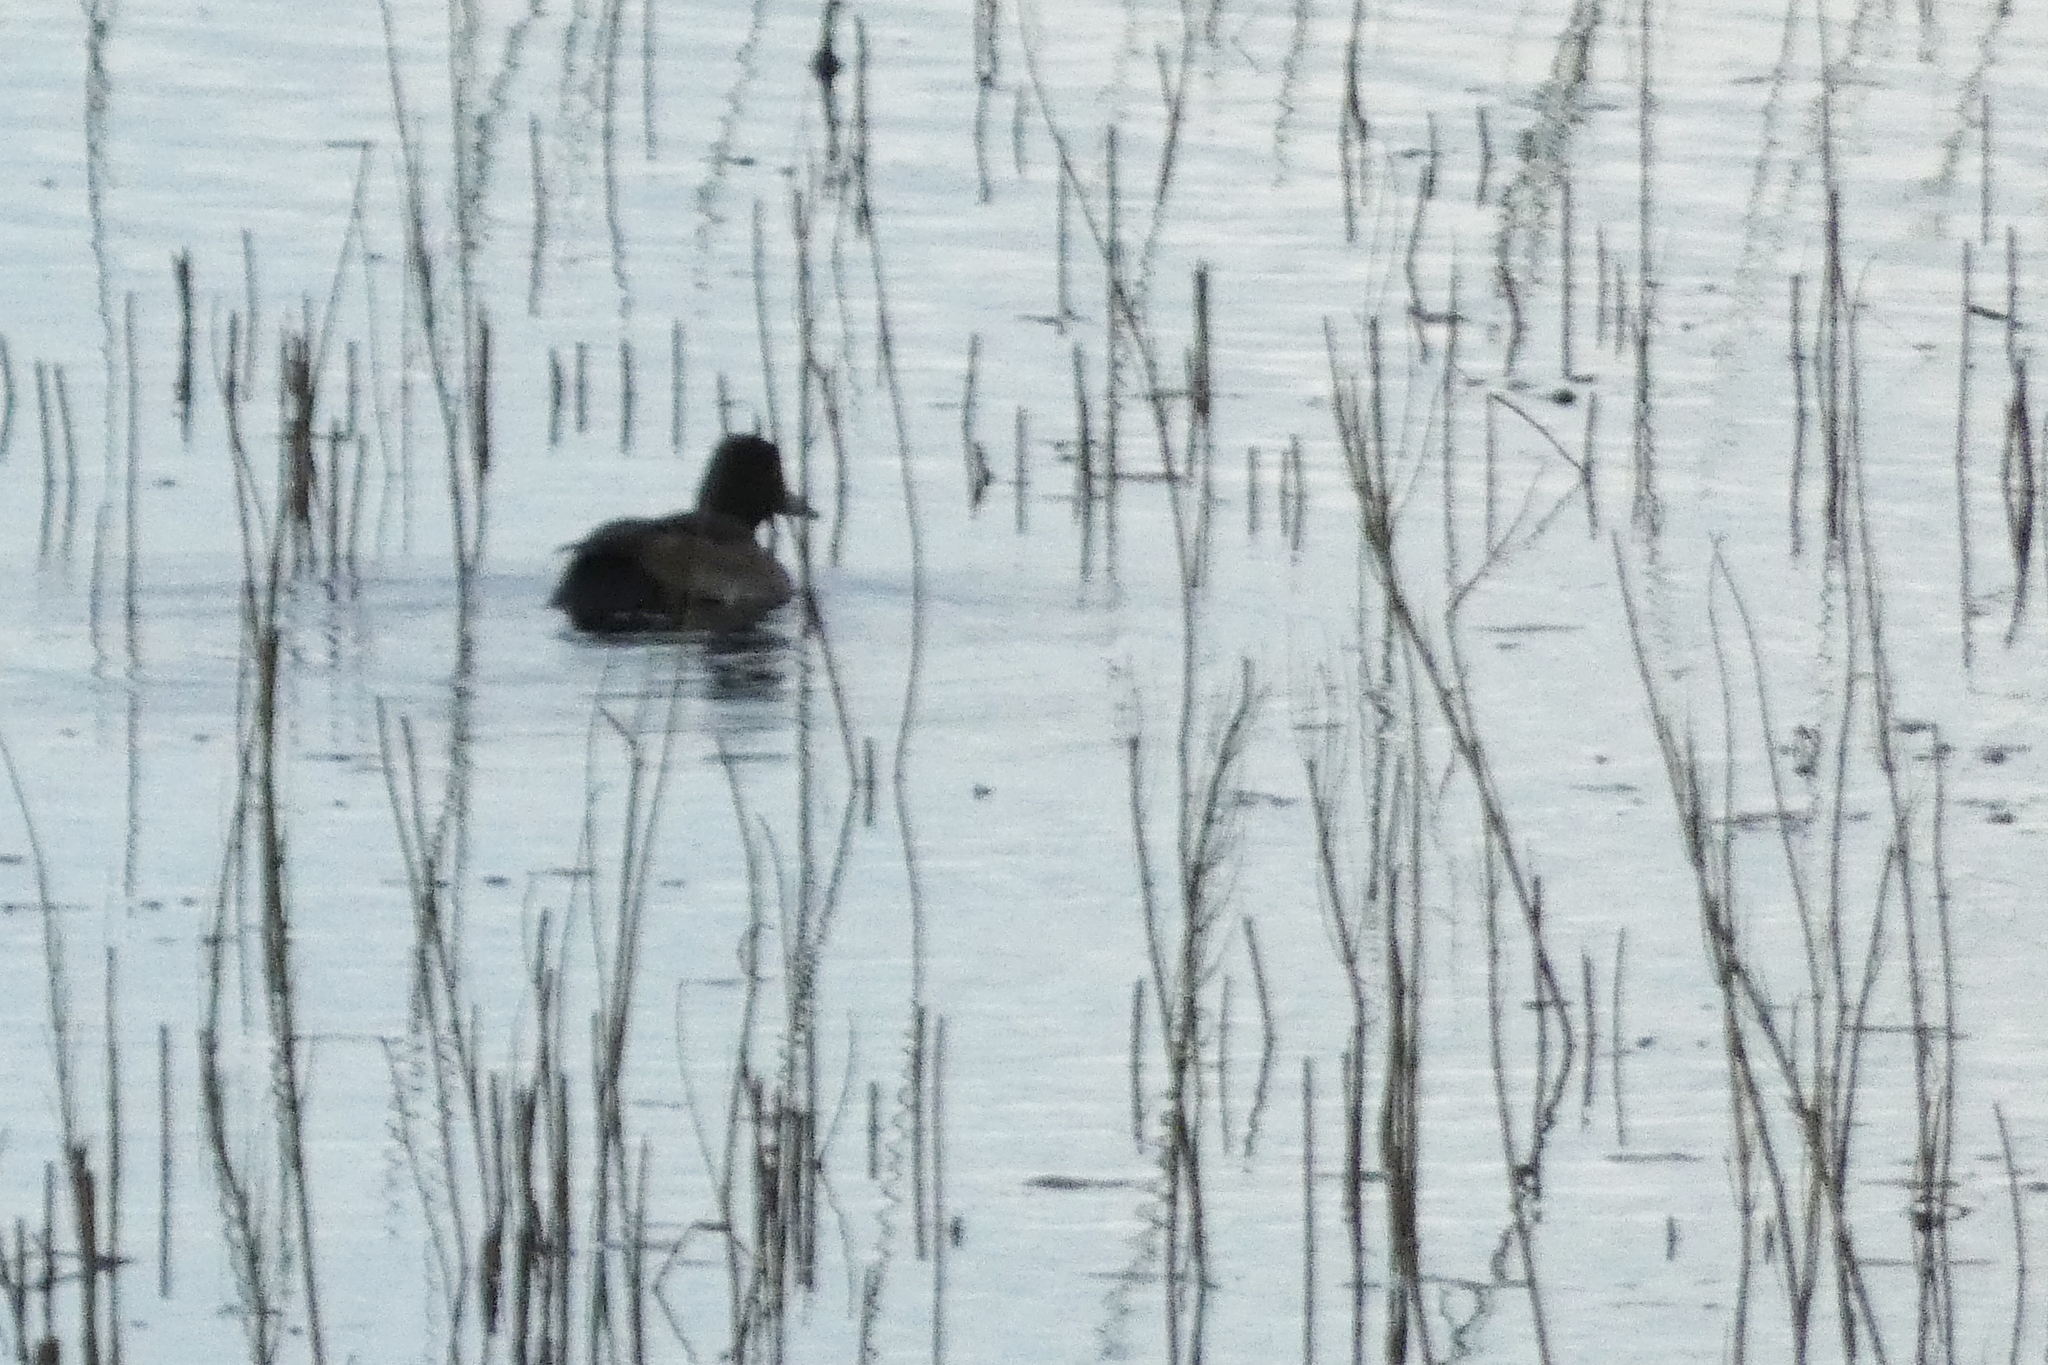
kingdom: Animalia
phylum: Chordata
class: Aves
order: Anseriformes
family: Anatidae
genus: Aythya
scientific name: Aythya fuligula
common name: Tufted duck
